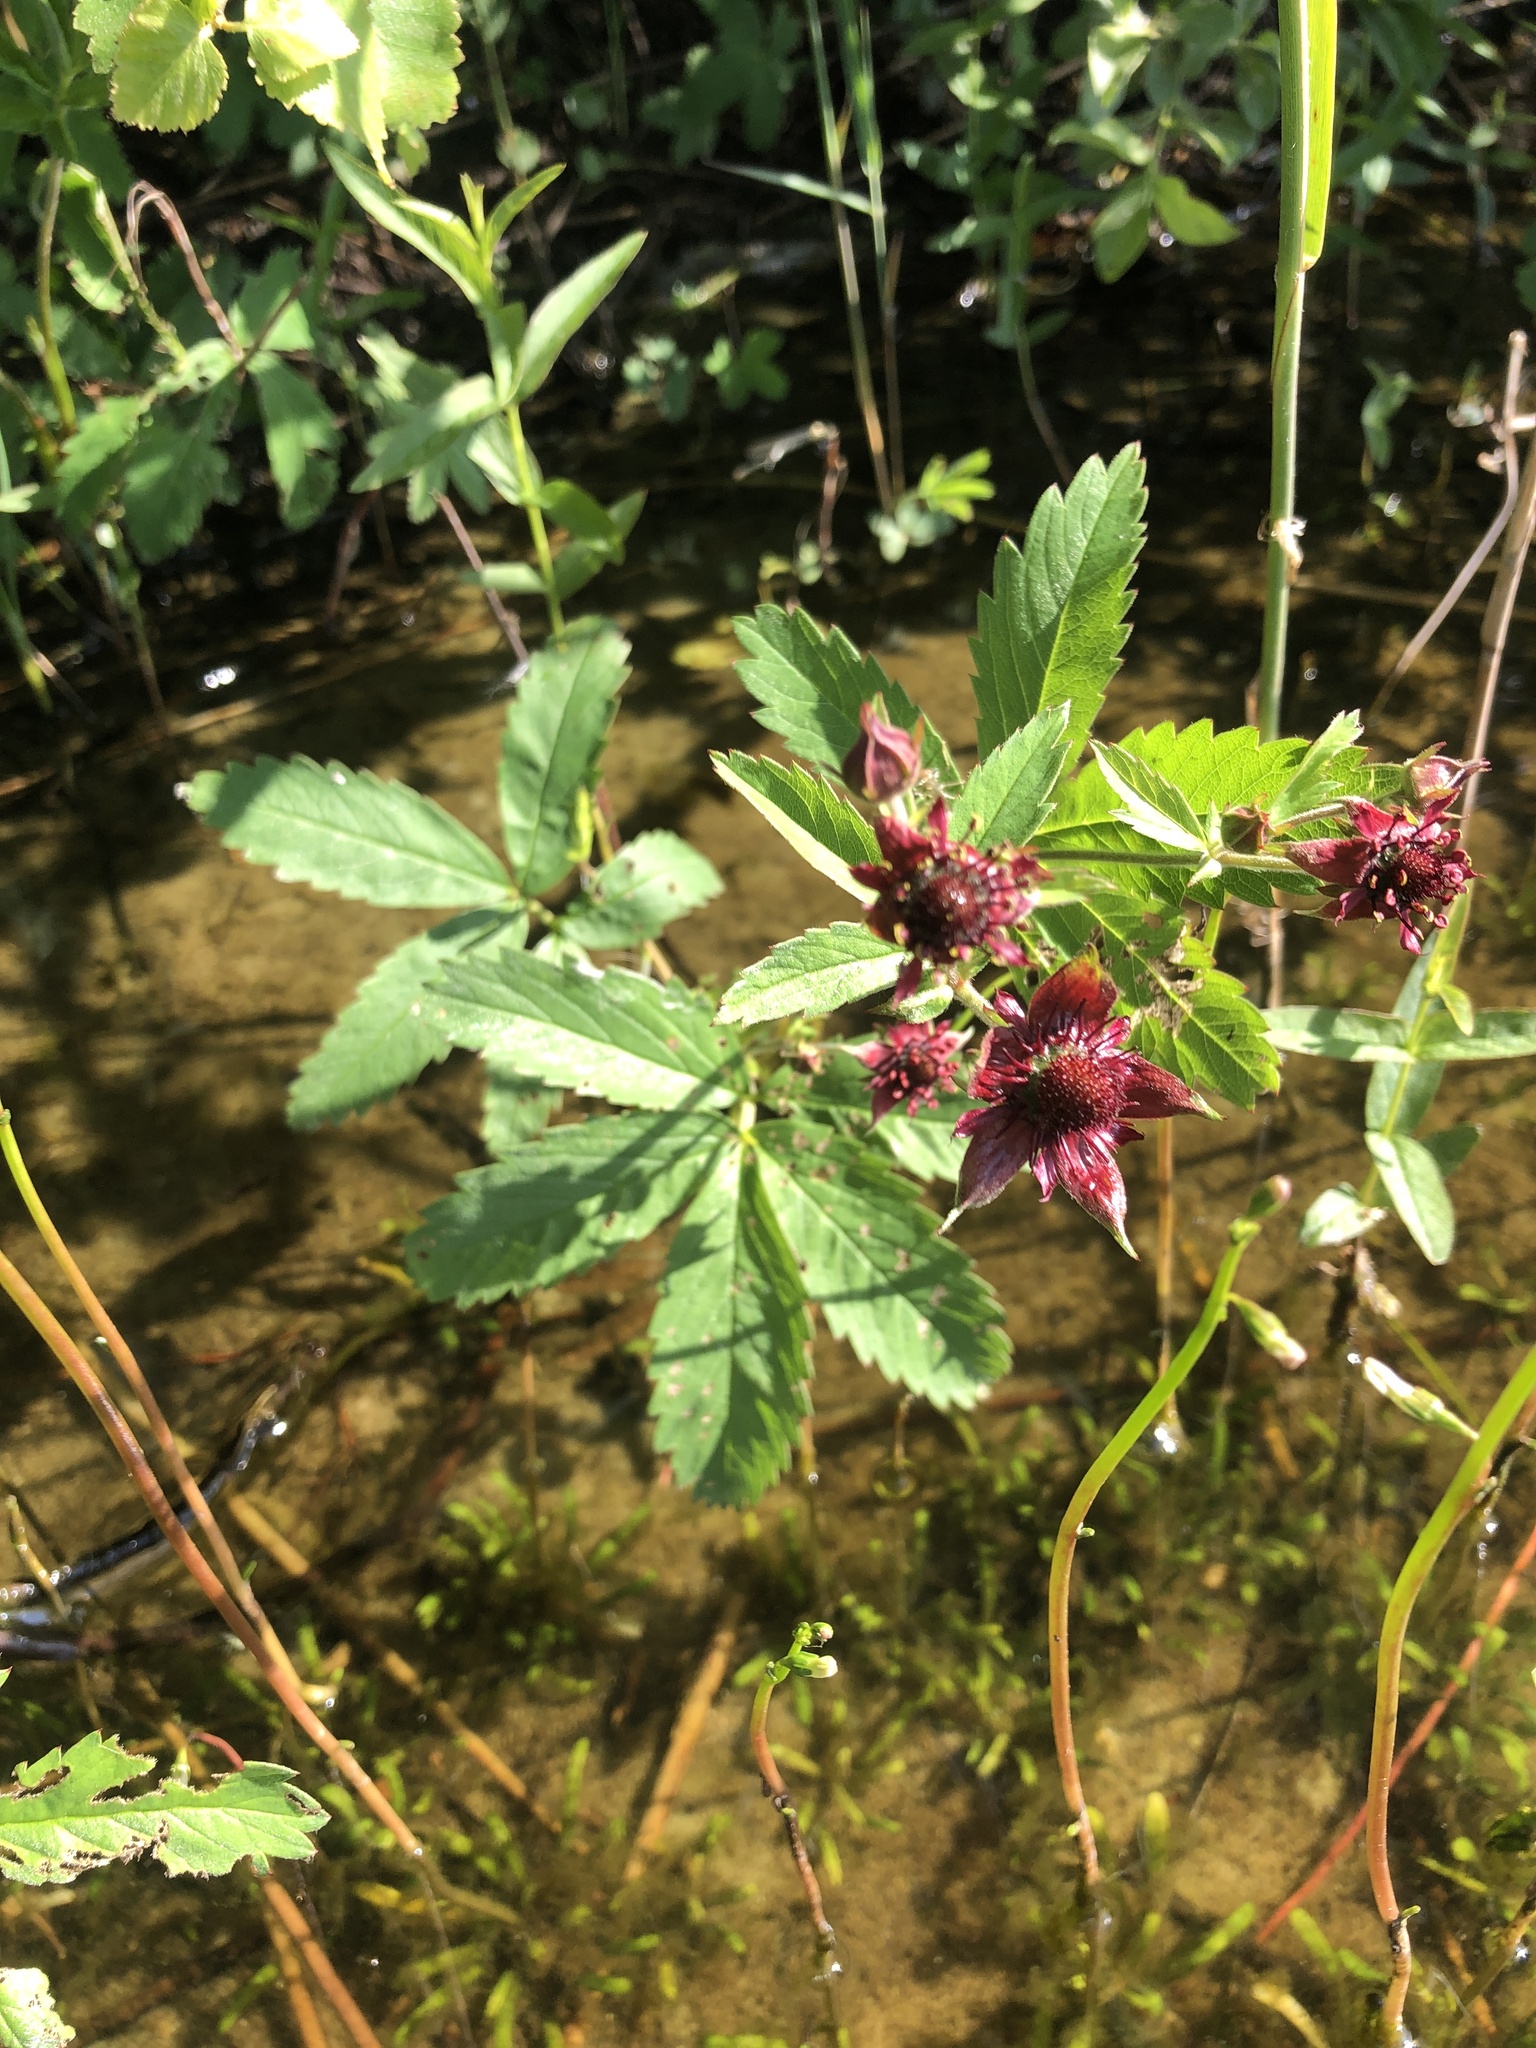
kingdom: Plantae
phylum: Tracheophyta
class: Magnoliopsida
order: Rosales
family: Rosaceae
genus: Comarum
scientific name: Comarum palustre
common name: Marsh cinquefoil
